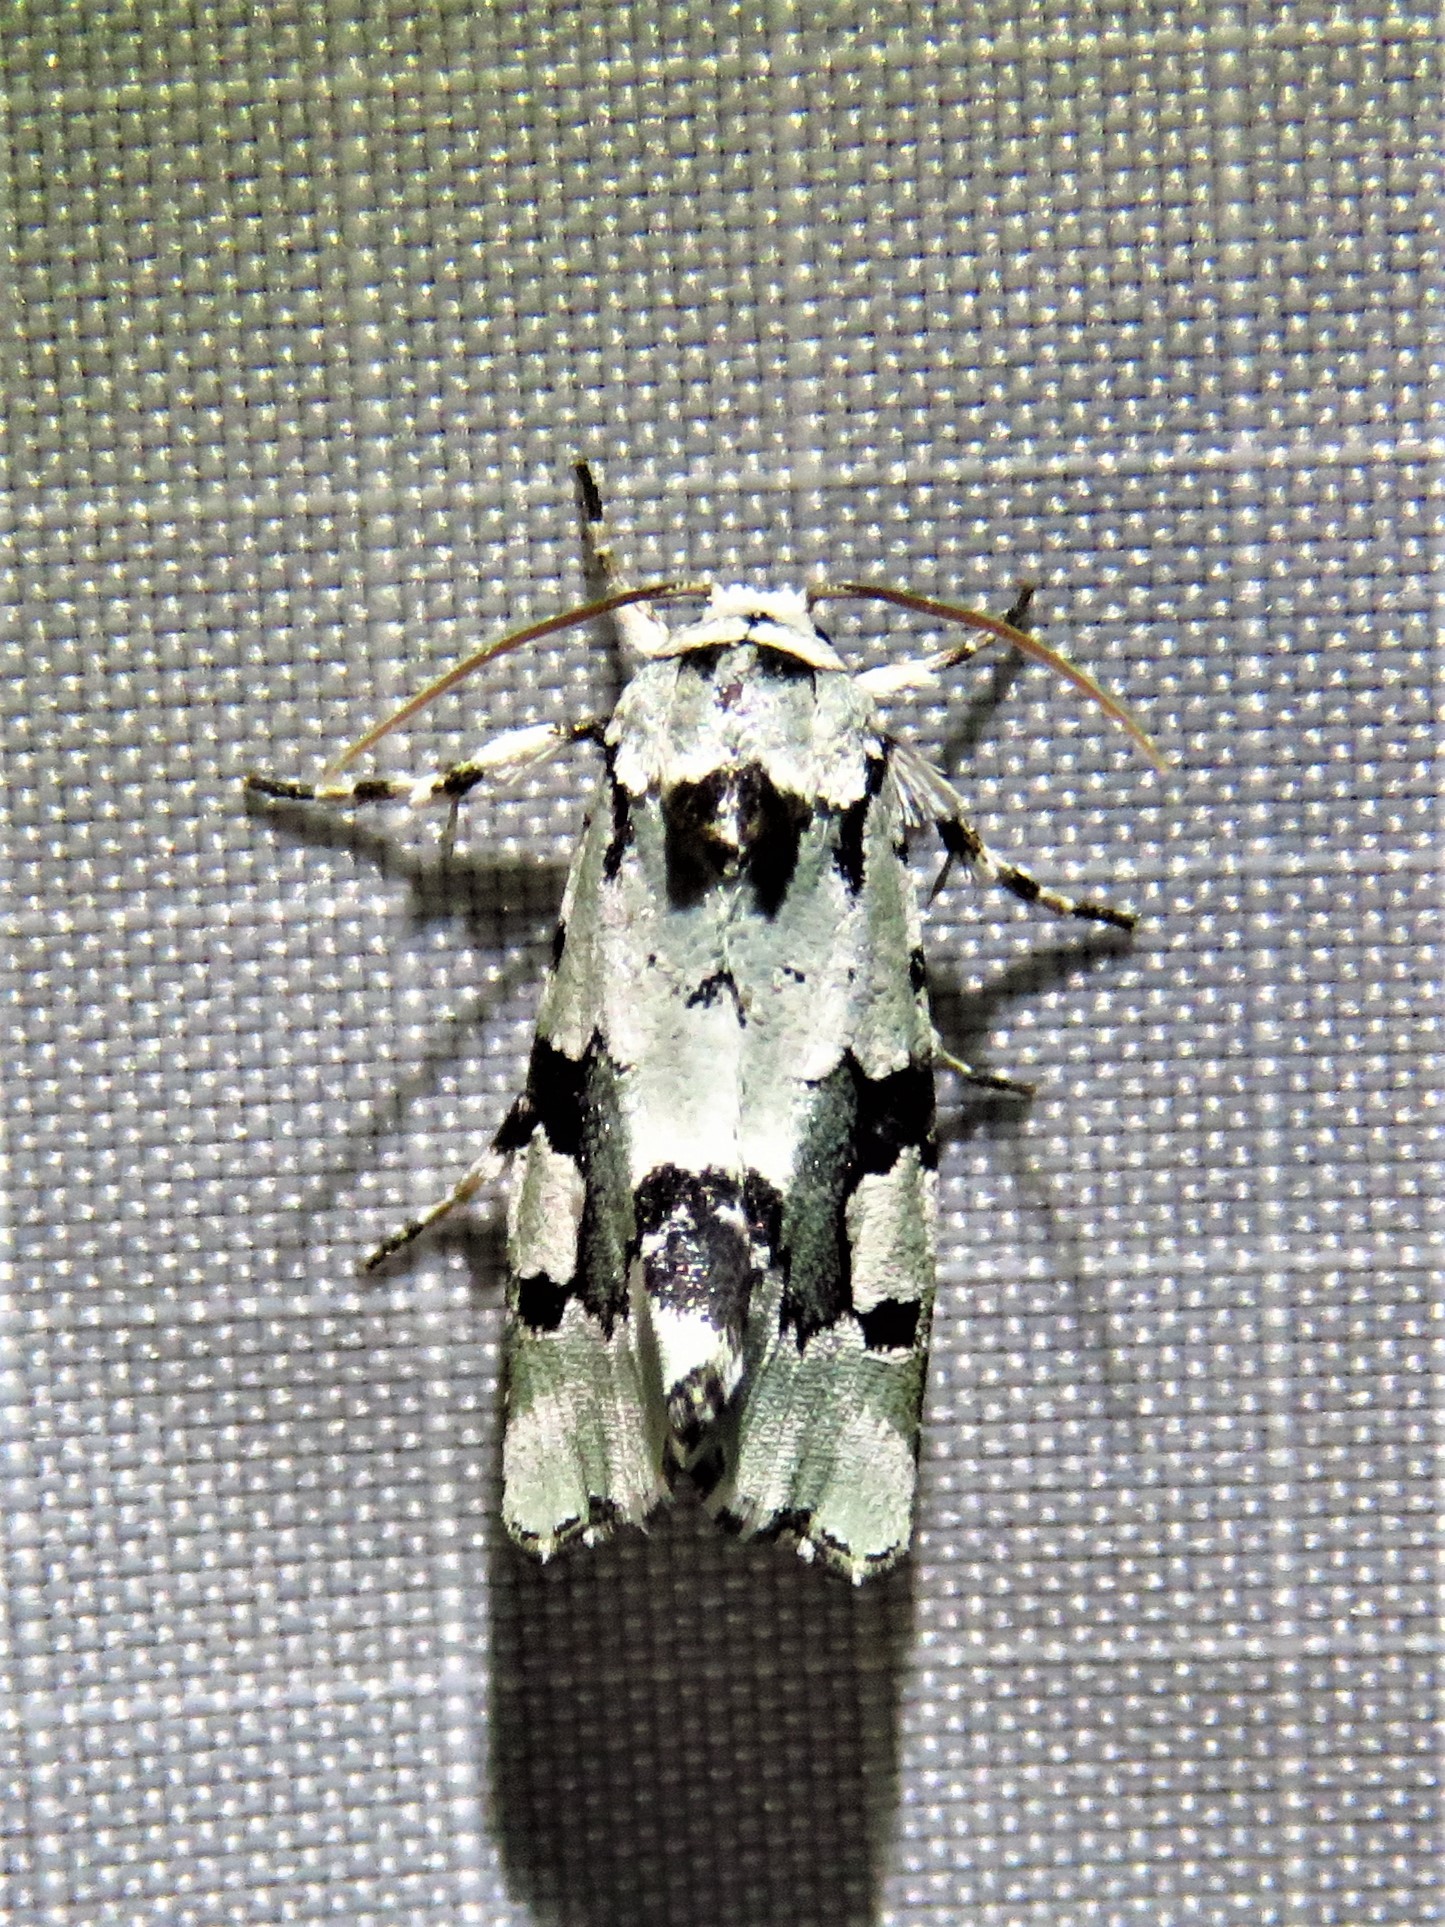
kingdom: Animalia
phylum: Arthropoda
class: Insecta
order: Lepidoptera
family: Noctuidae
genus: Emarginea
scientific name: Emarginea percara
